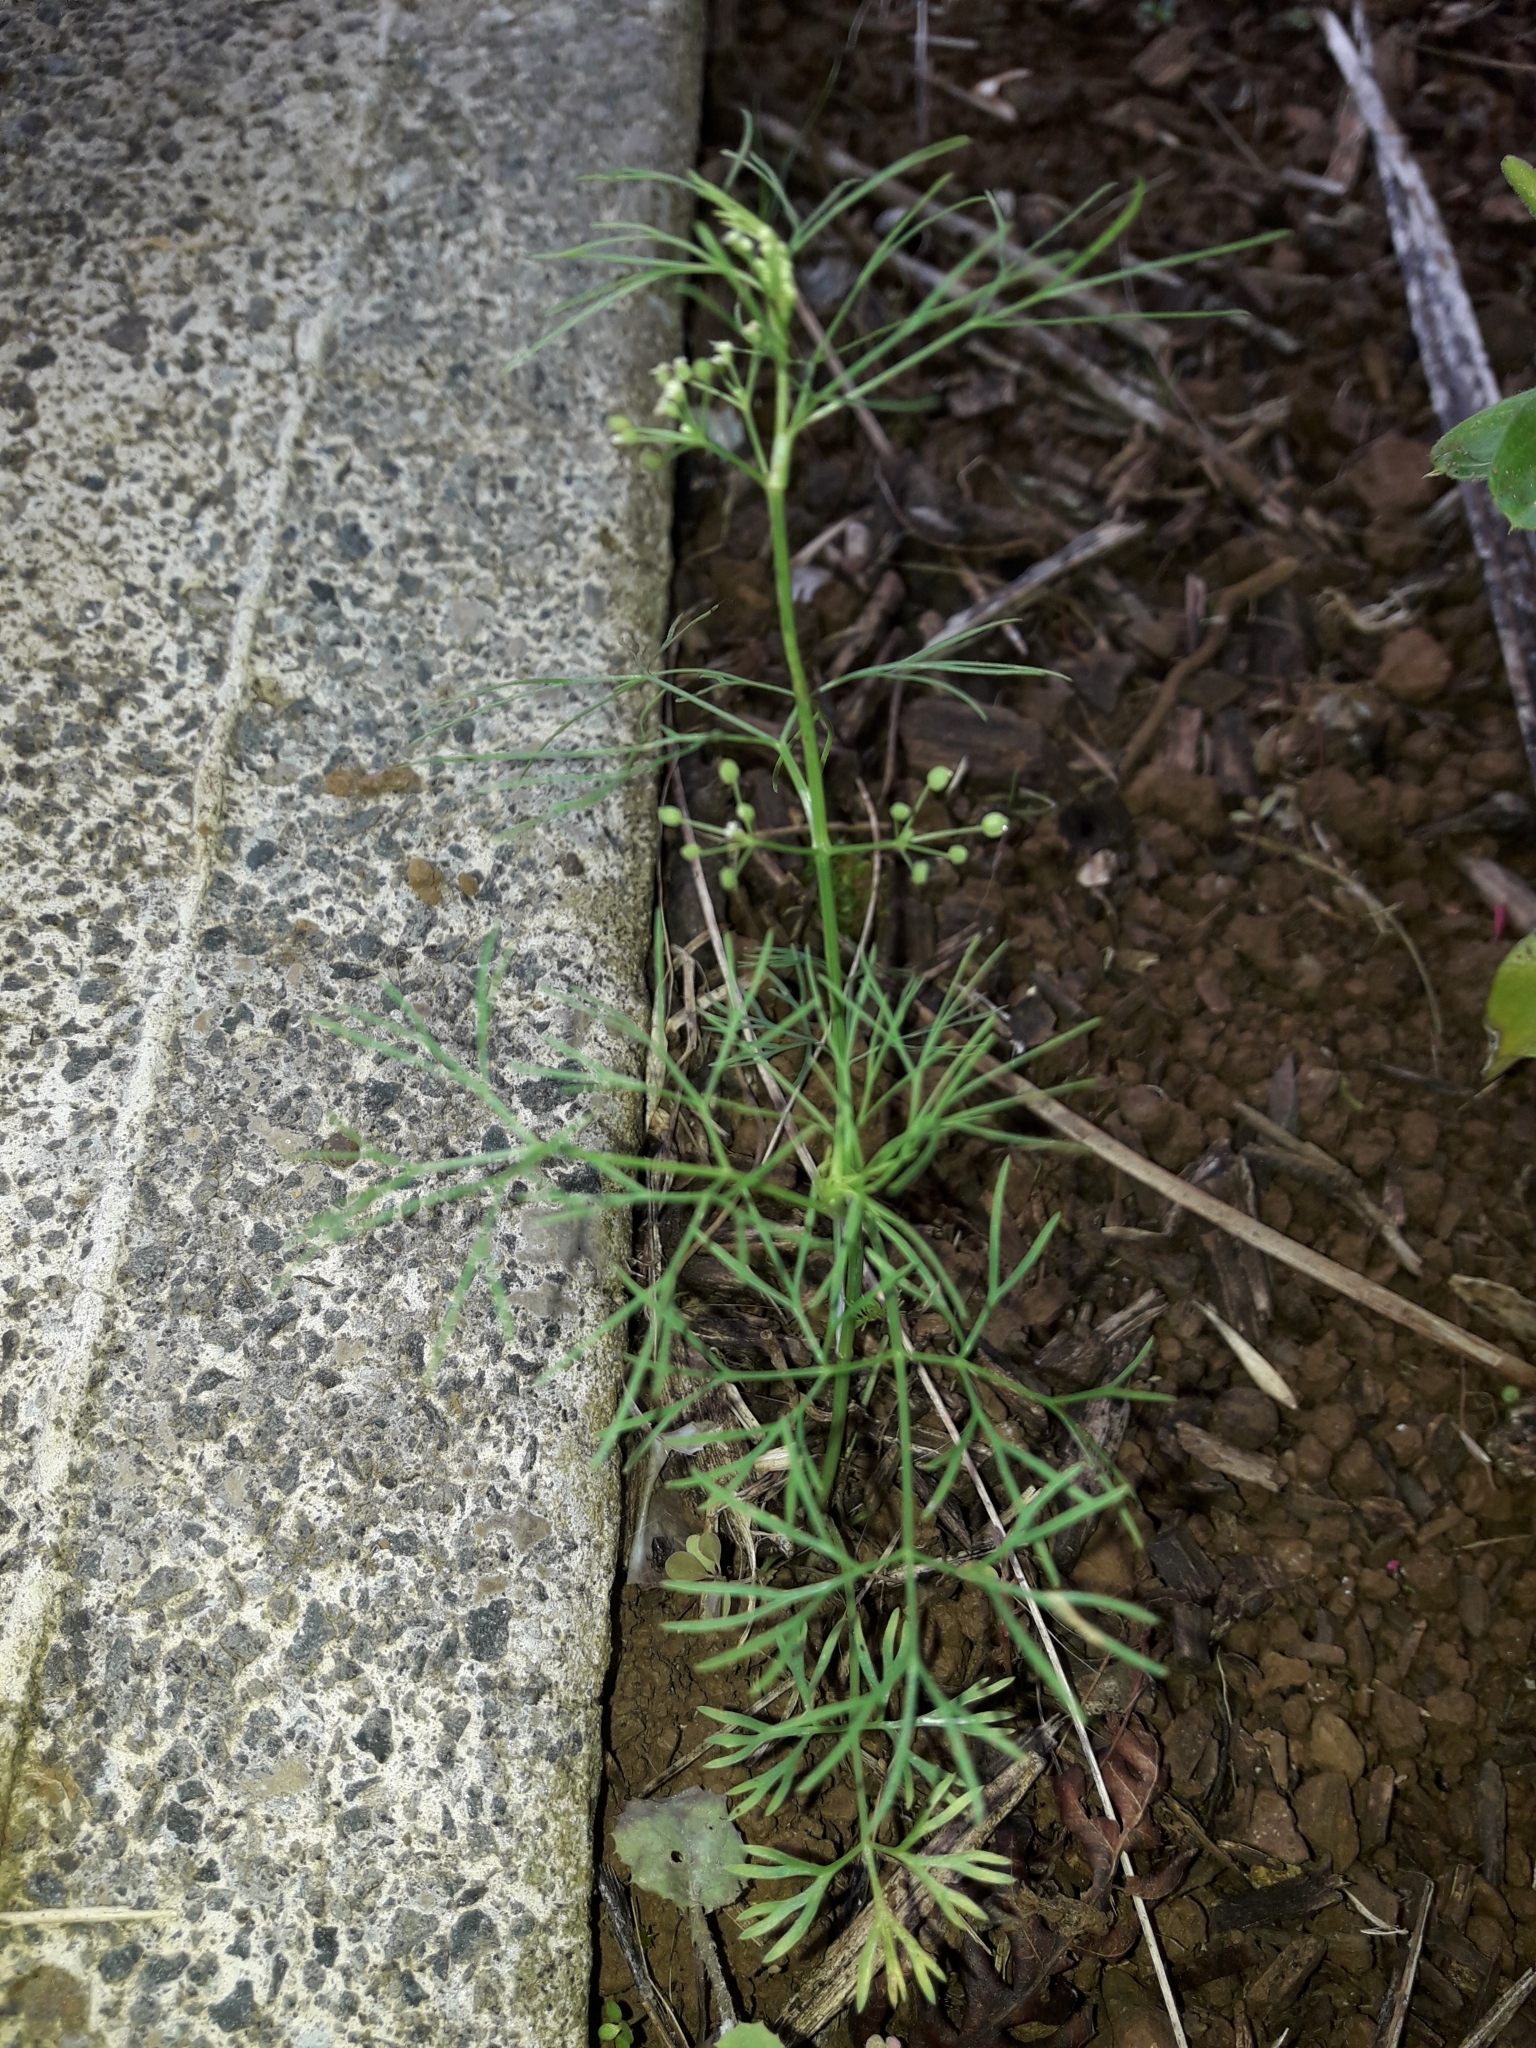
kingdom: Plantae
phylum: Tracheophyta
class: Magnoliopsida
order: Apiales
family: Apiaceae
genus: Cyclospermum
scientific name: Cyclospermum leptophyllum
